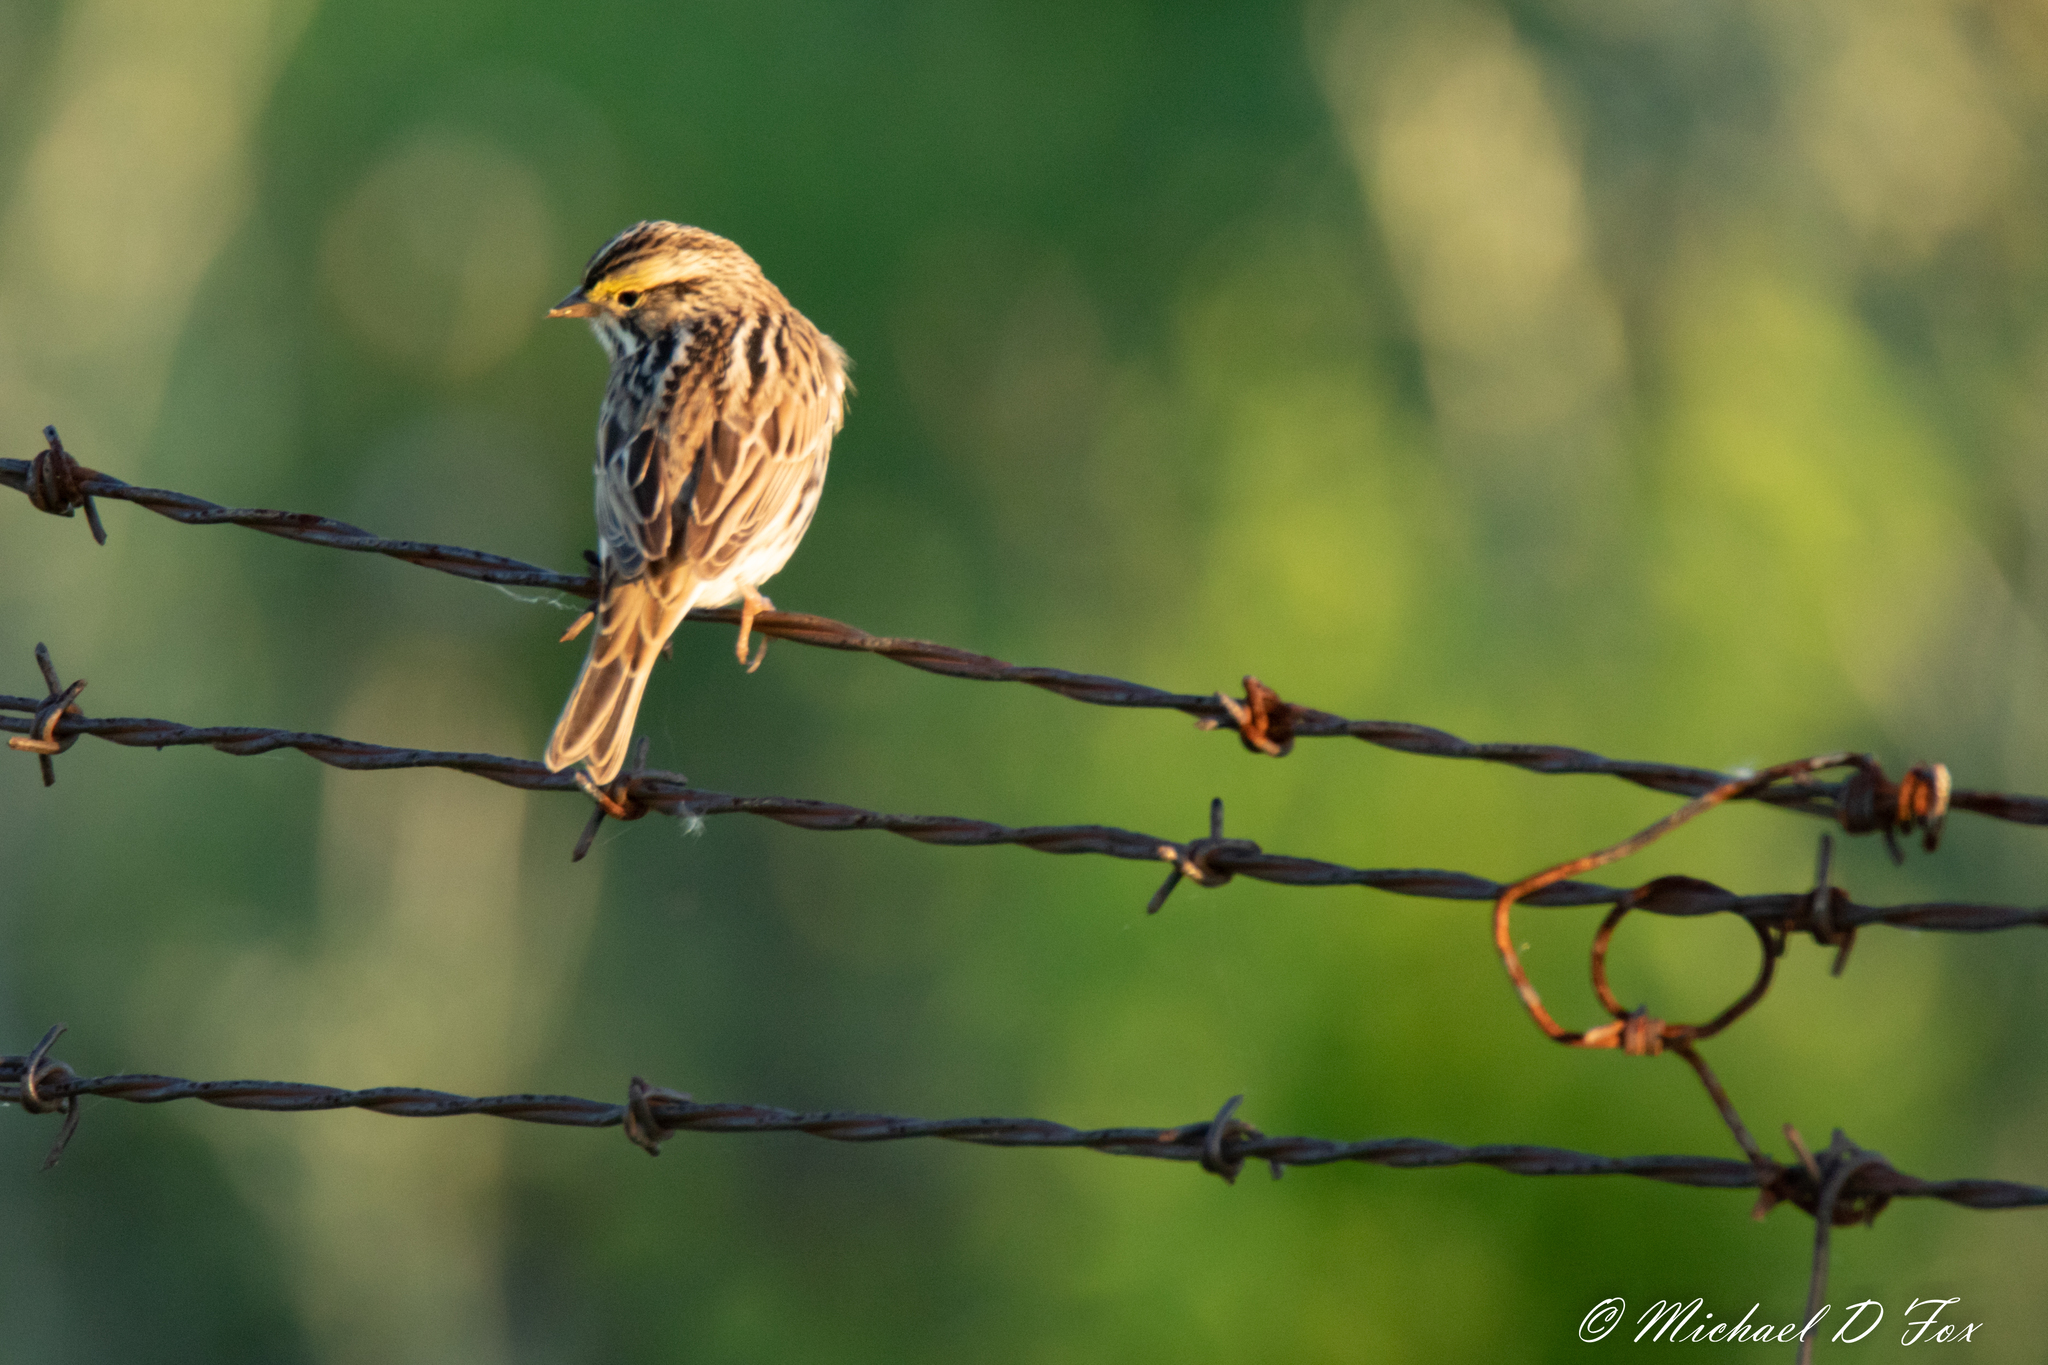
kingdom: Animalia
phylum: Chordata
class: Aves
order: Passeriformes
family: Passerellidae
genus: Passerculus
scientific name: Passerculus sandwichensis
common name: Savannah sparrow
